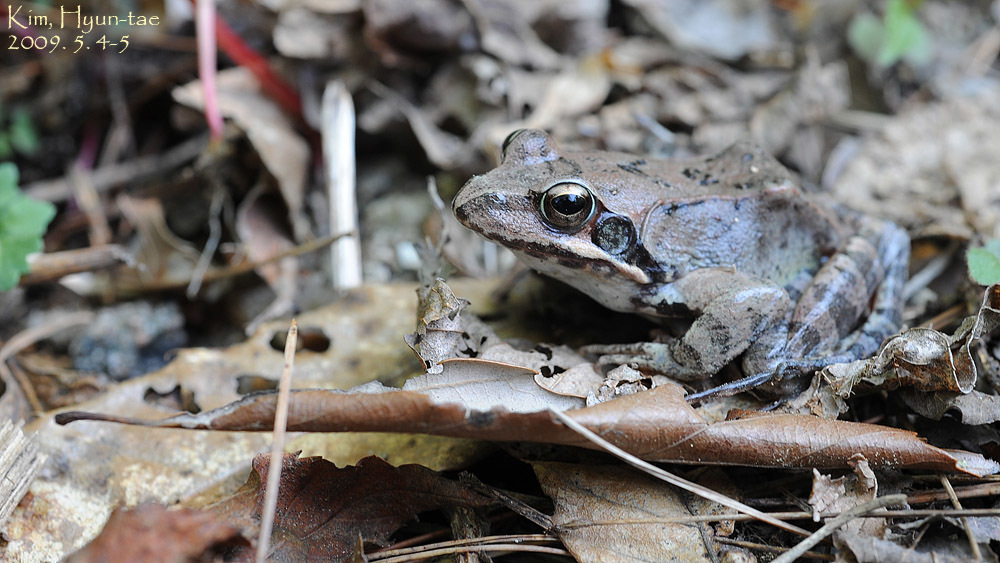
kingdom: Animalia
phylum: Chordata
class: Amphibia
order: Anura
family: Ranidae
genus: Rana
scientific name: Rana uenoi
